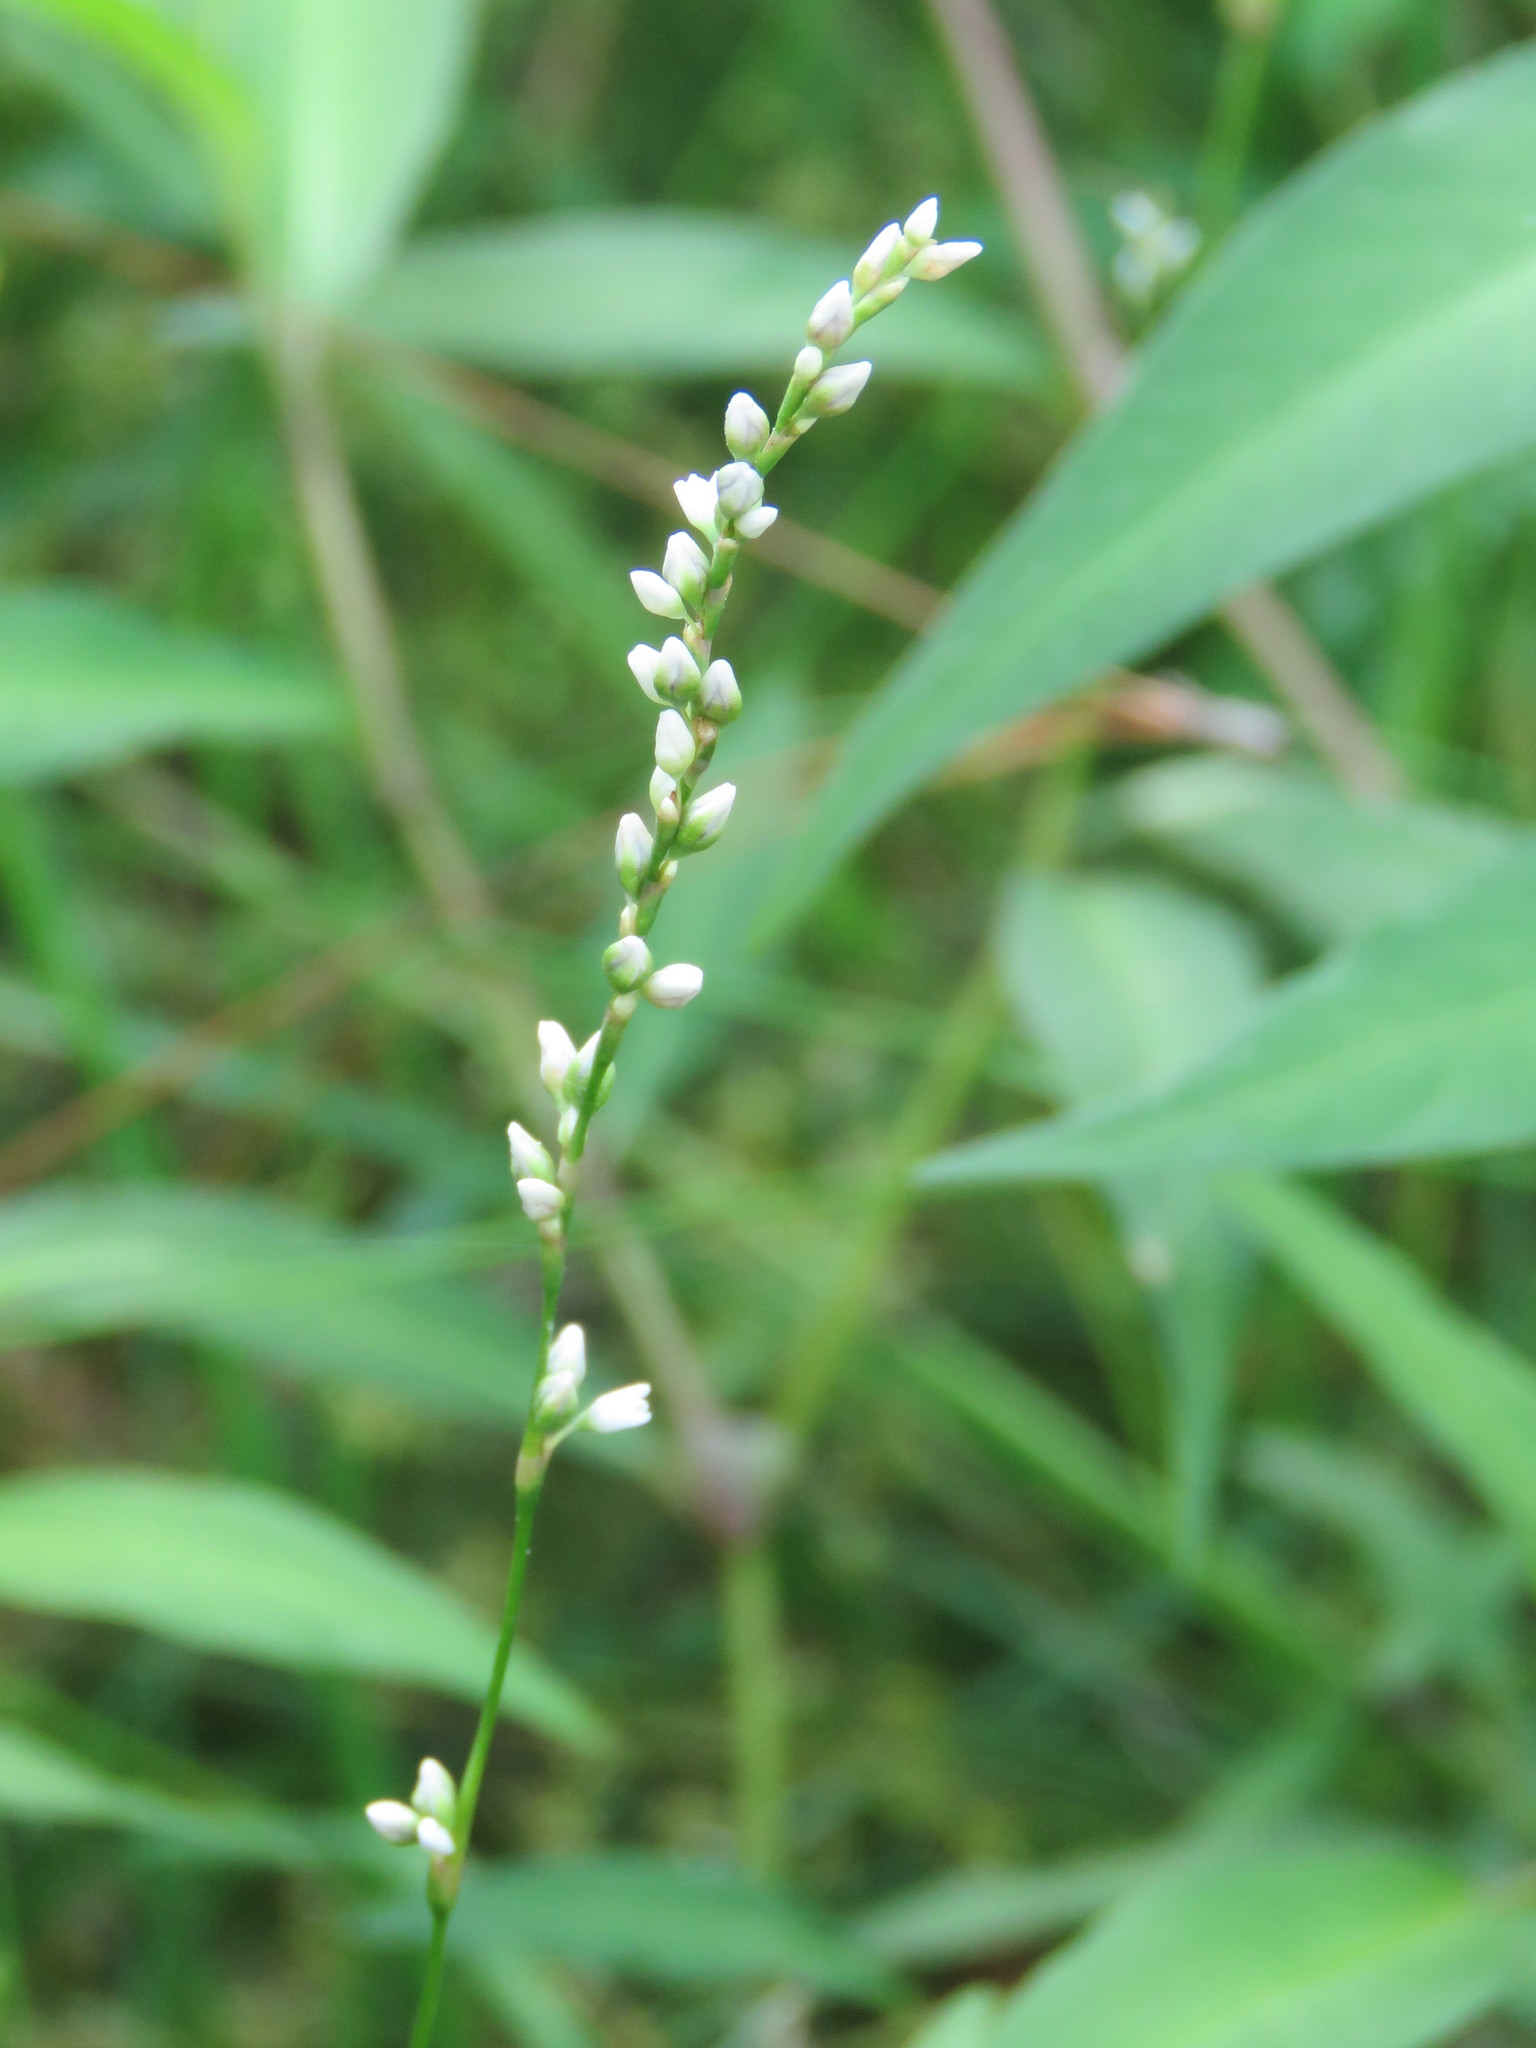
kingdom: Plantae
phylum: Tracheophyta
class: Magnoliopsida
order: Caryophyllales
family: Polygonaceae
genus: Persicaria
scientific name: Persicaria punctata
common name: Dotted smartweed
